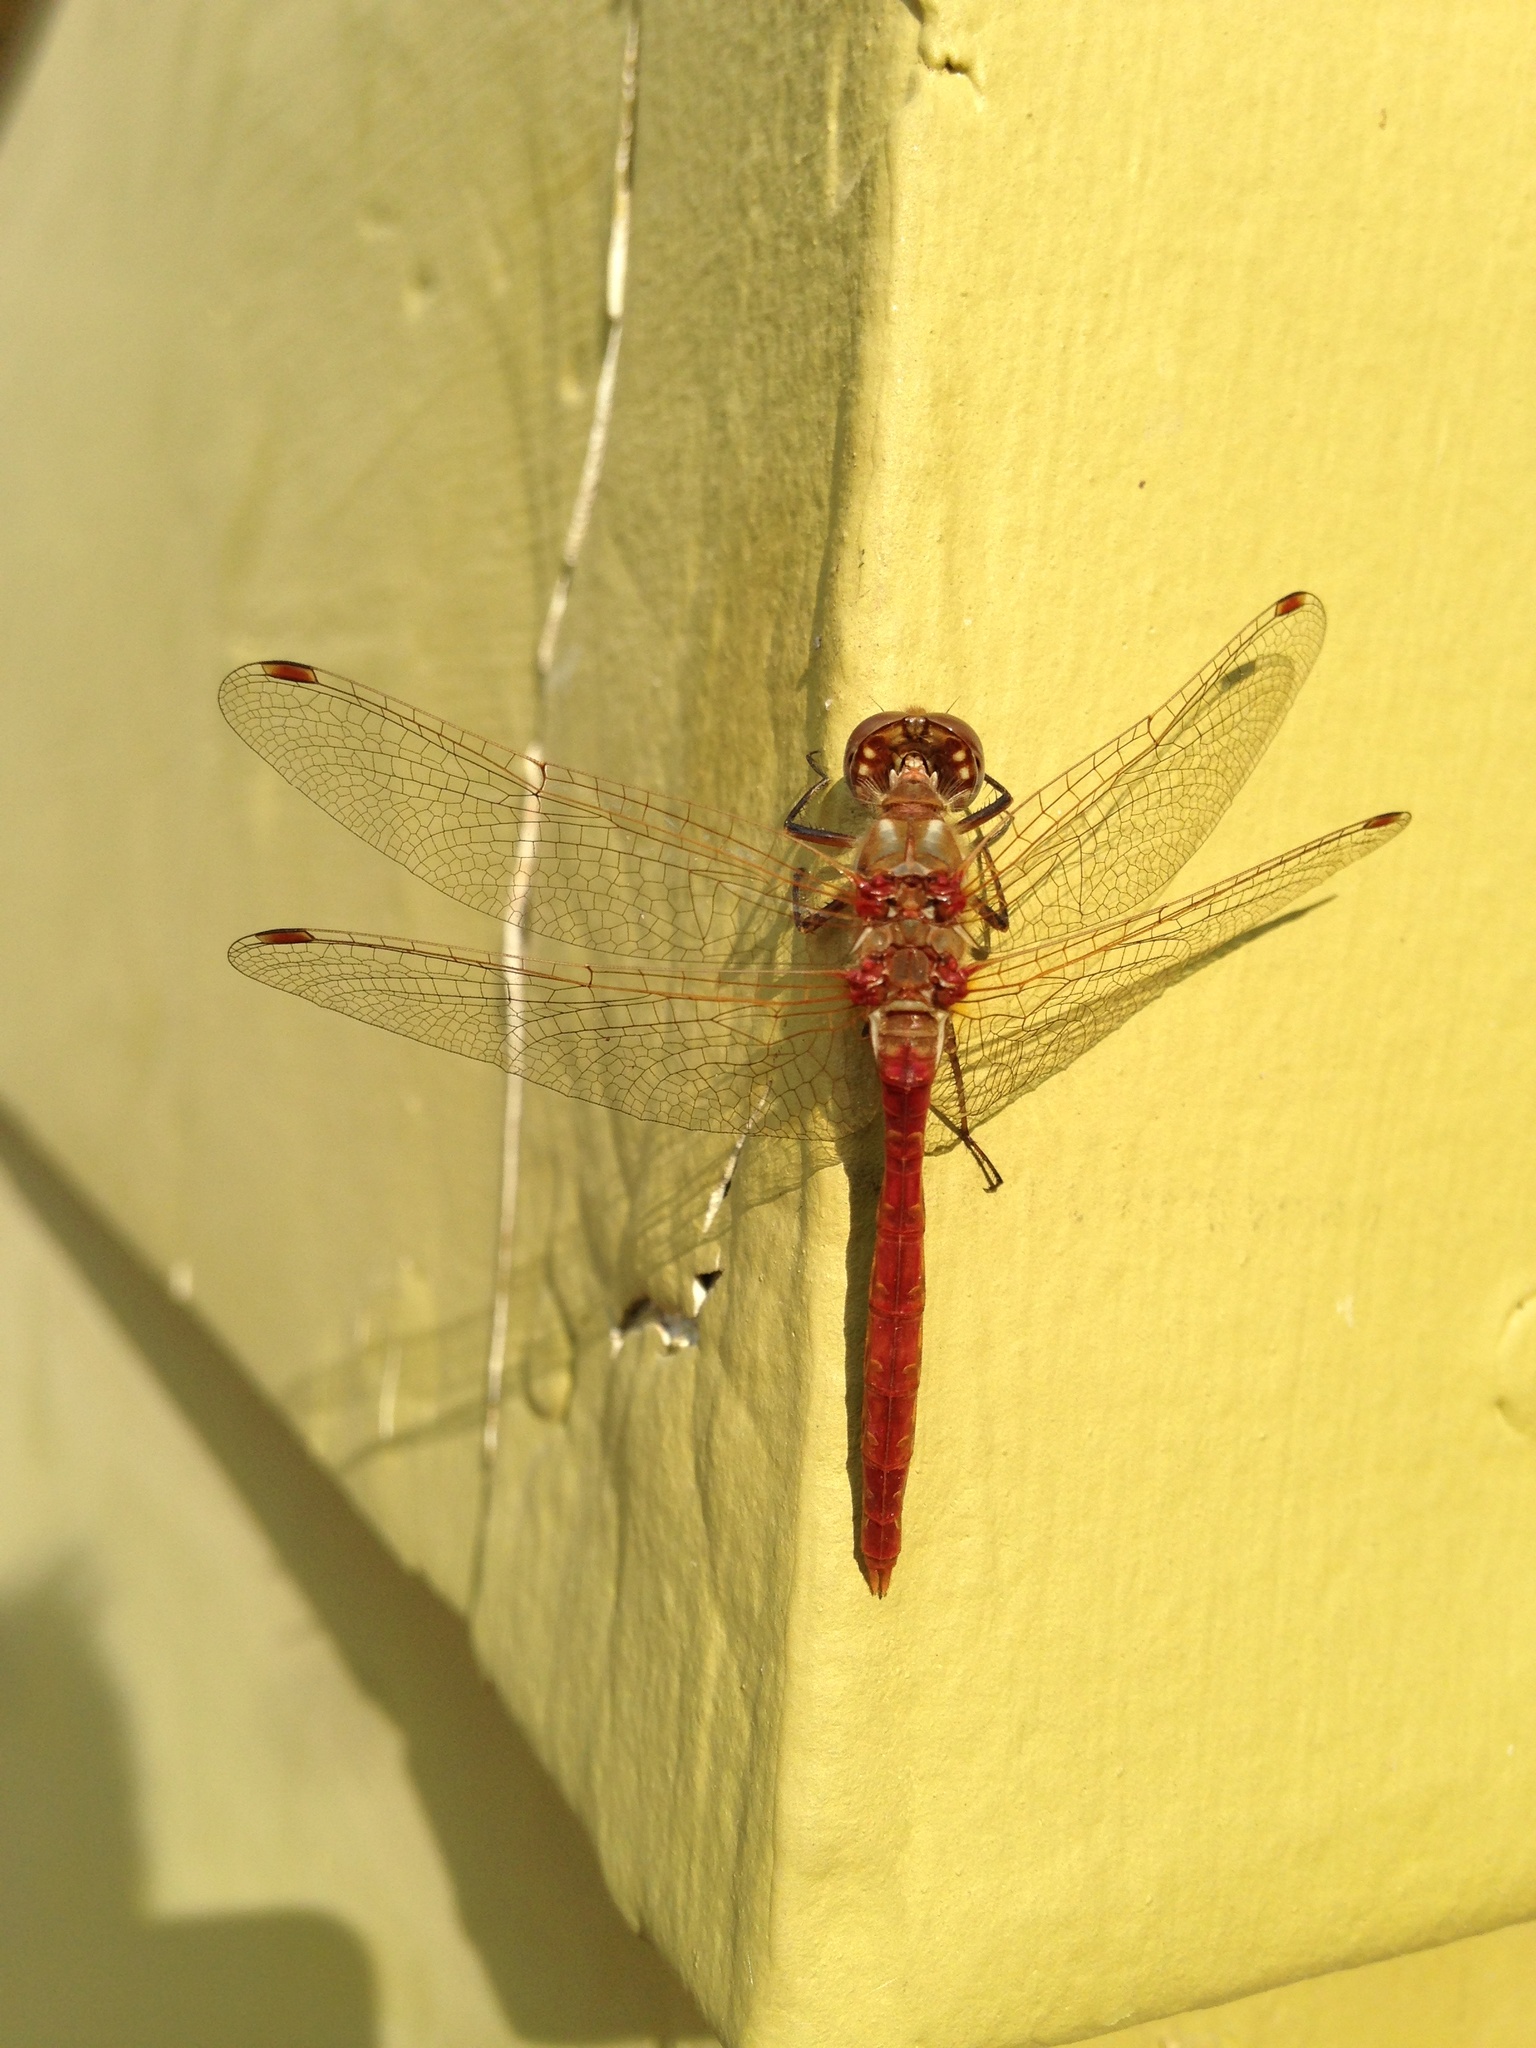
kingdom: Animalia
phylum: Arthropoda
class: Insecta
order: Odonata
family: Libellulidae
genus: Sympetrum
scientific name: Sympetrum pallipes
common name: Striped meadowhawk
